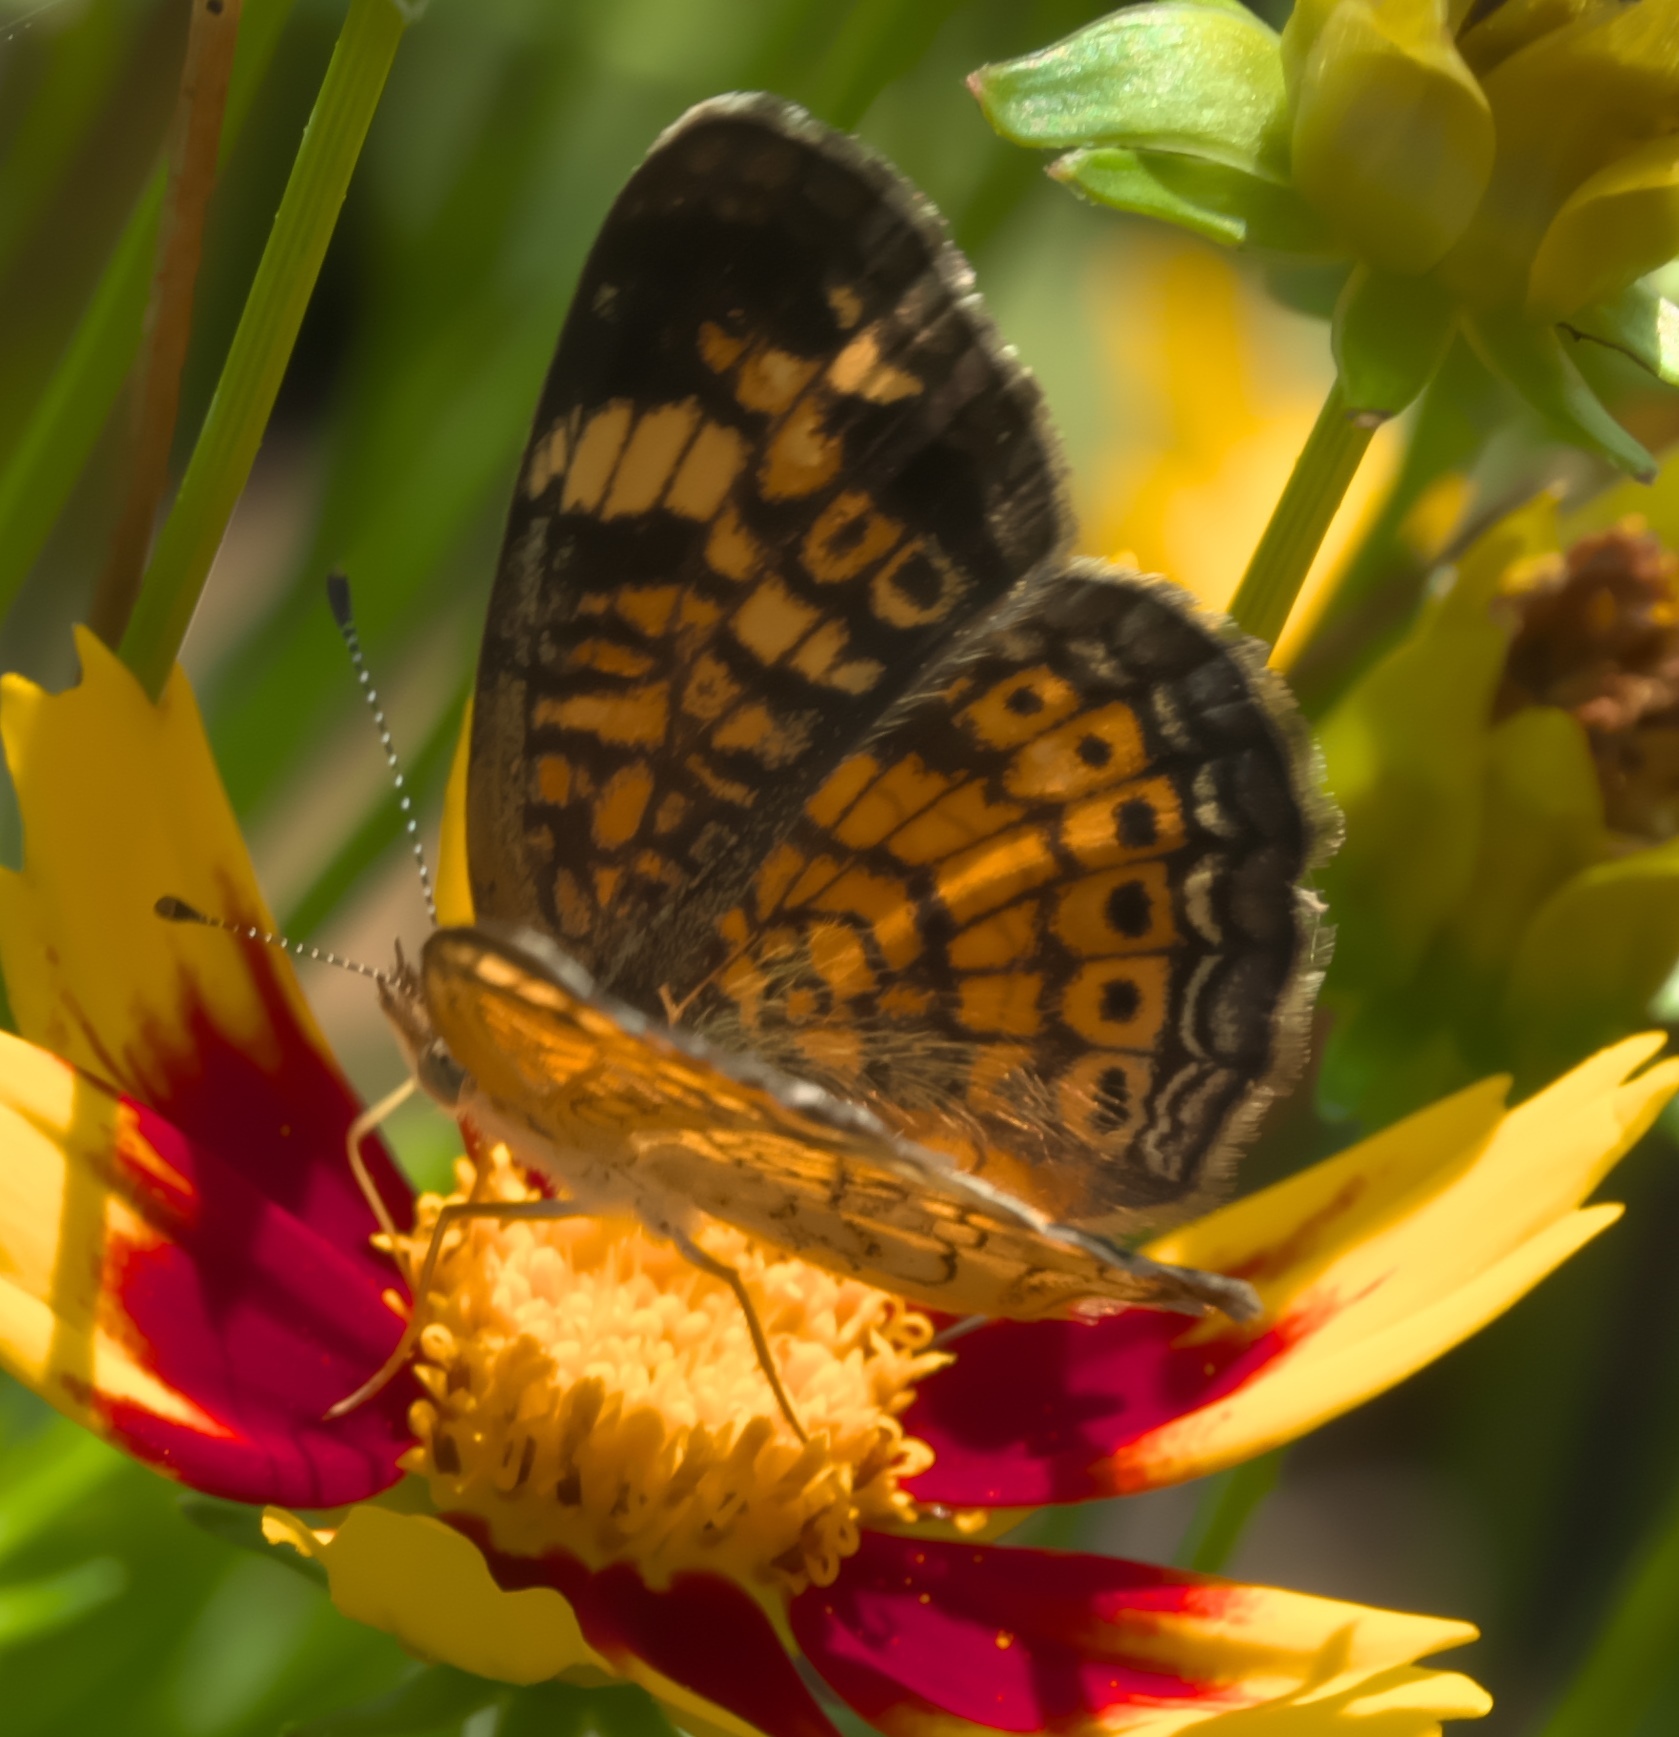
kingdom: Animalia
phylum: Arthropoda
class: Insecta
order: Lepidoptera
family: Nymphalidae
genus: Phyciodes
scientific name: Phyciodes tharos
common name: Pearl crescent
